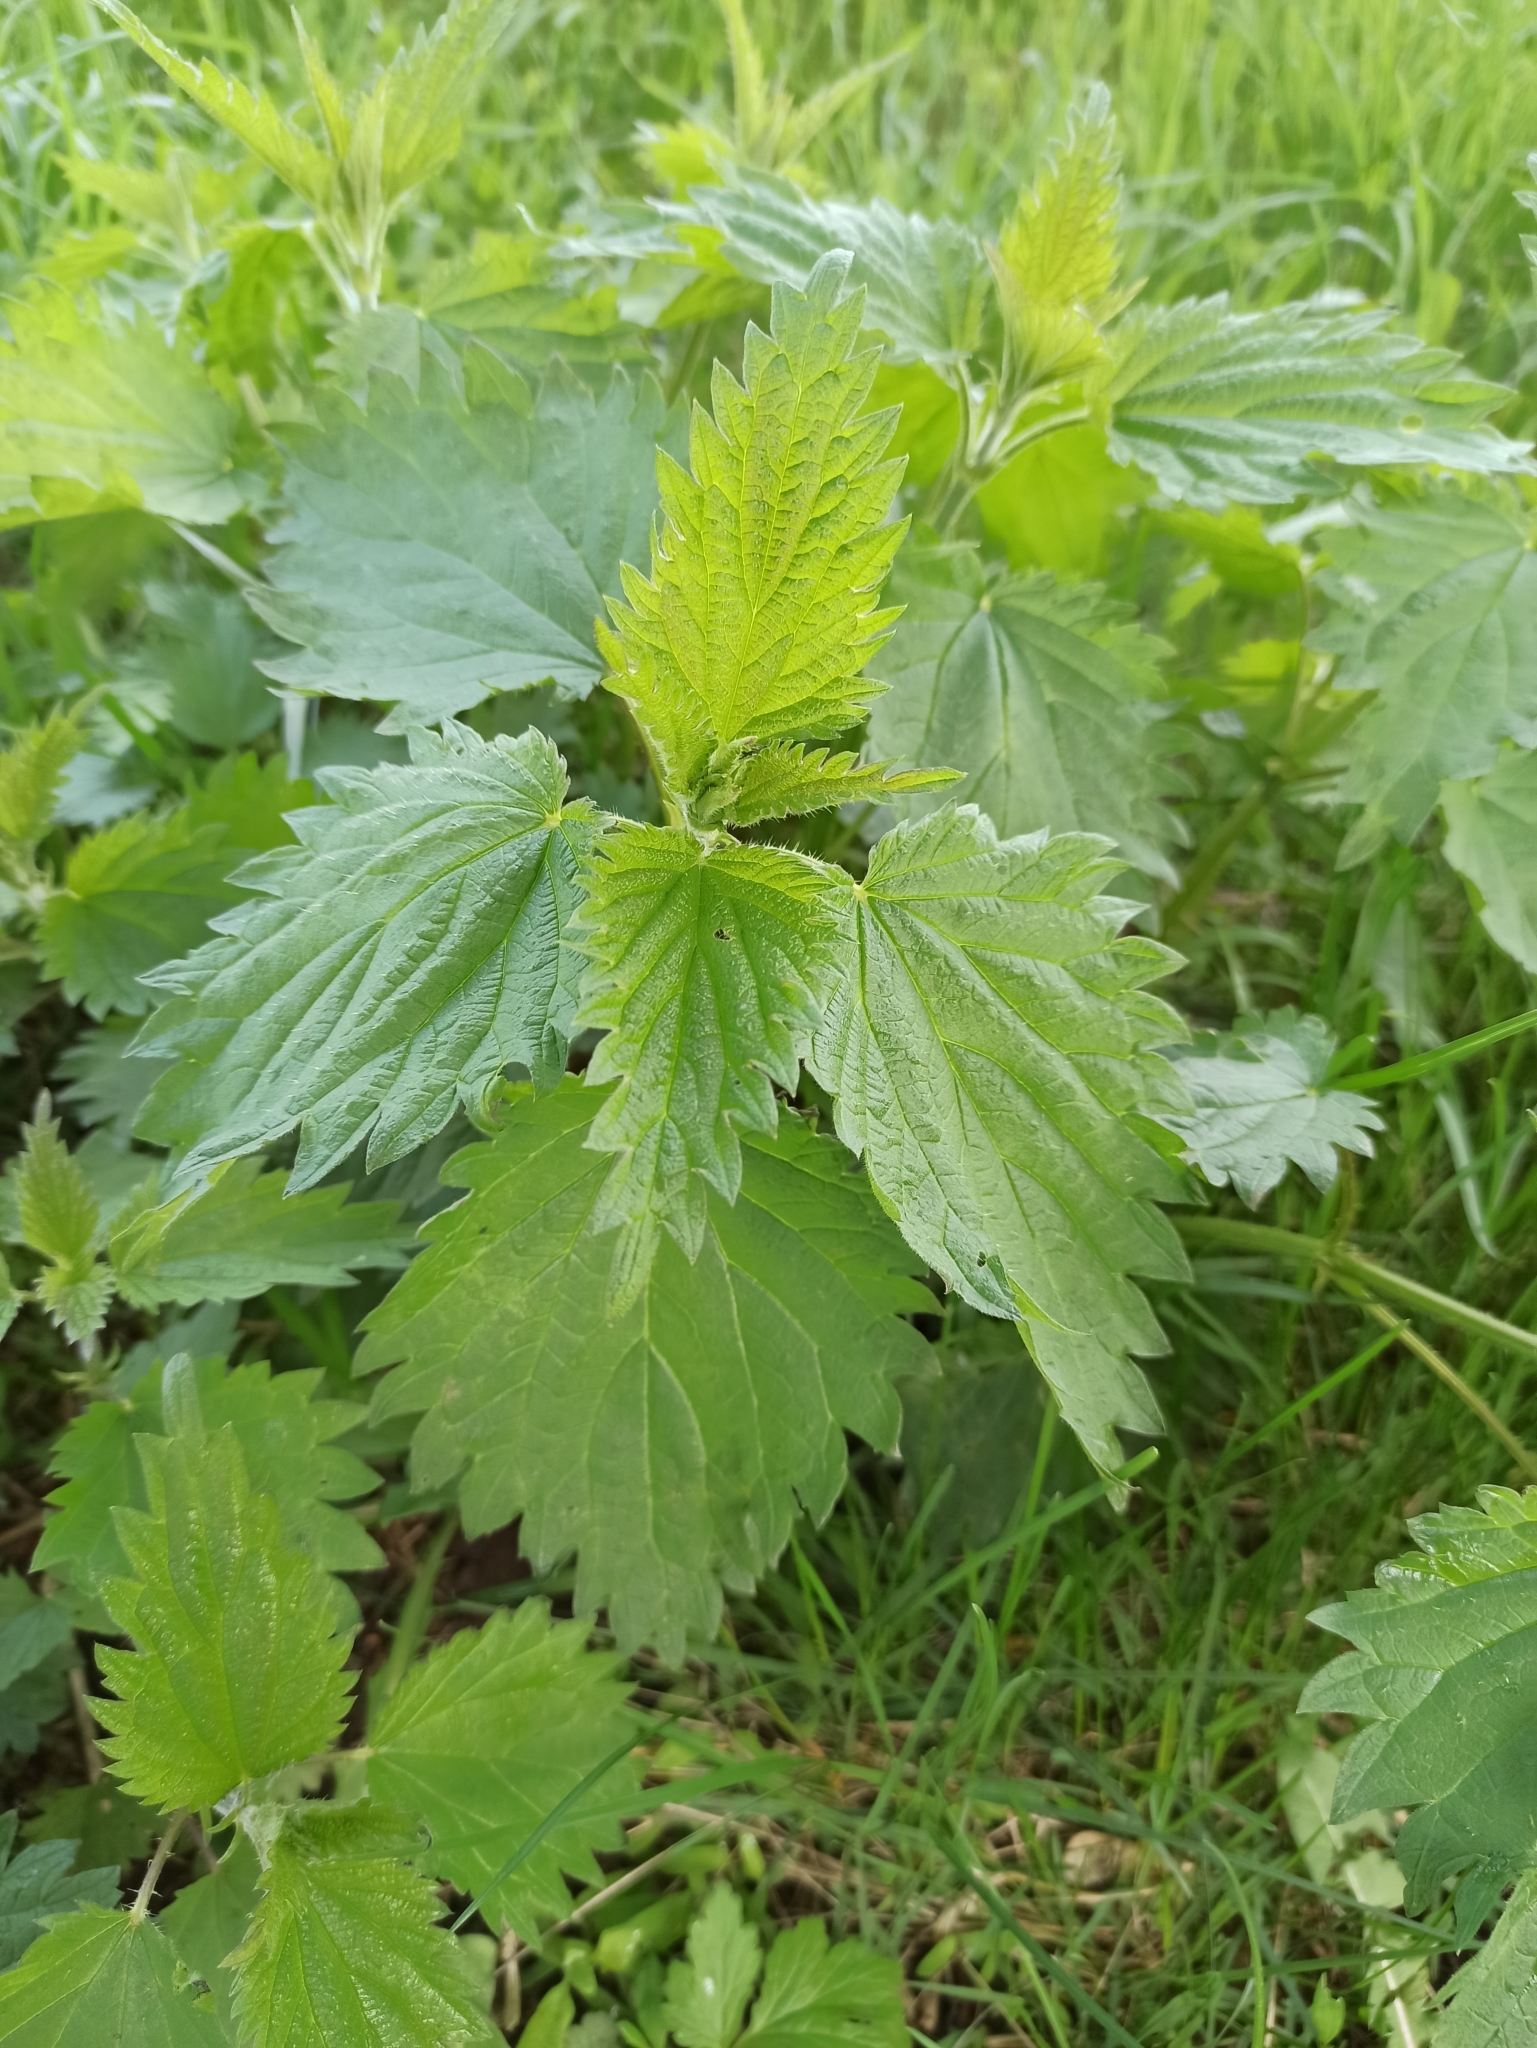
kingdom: Plantae
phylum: Tracheophyta
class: Magnoliopsida
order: Rosales
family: Urticaceae
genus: Urtica
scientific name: Urtica dioica
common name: Common nettle
